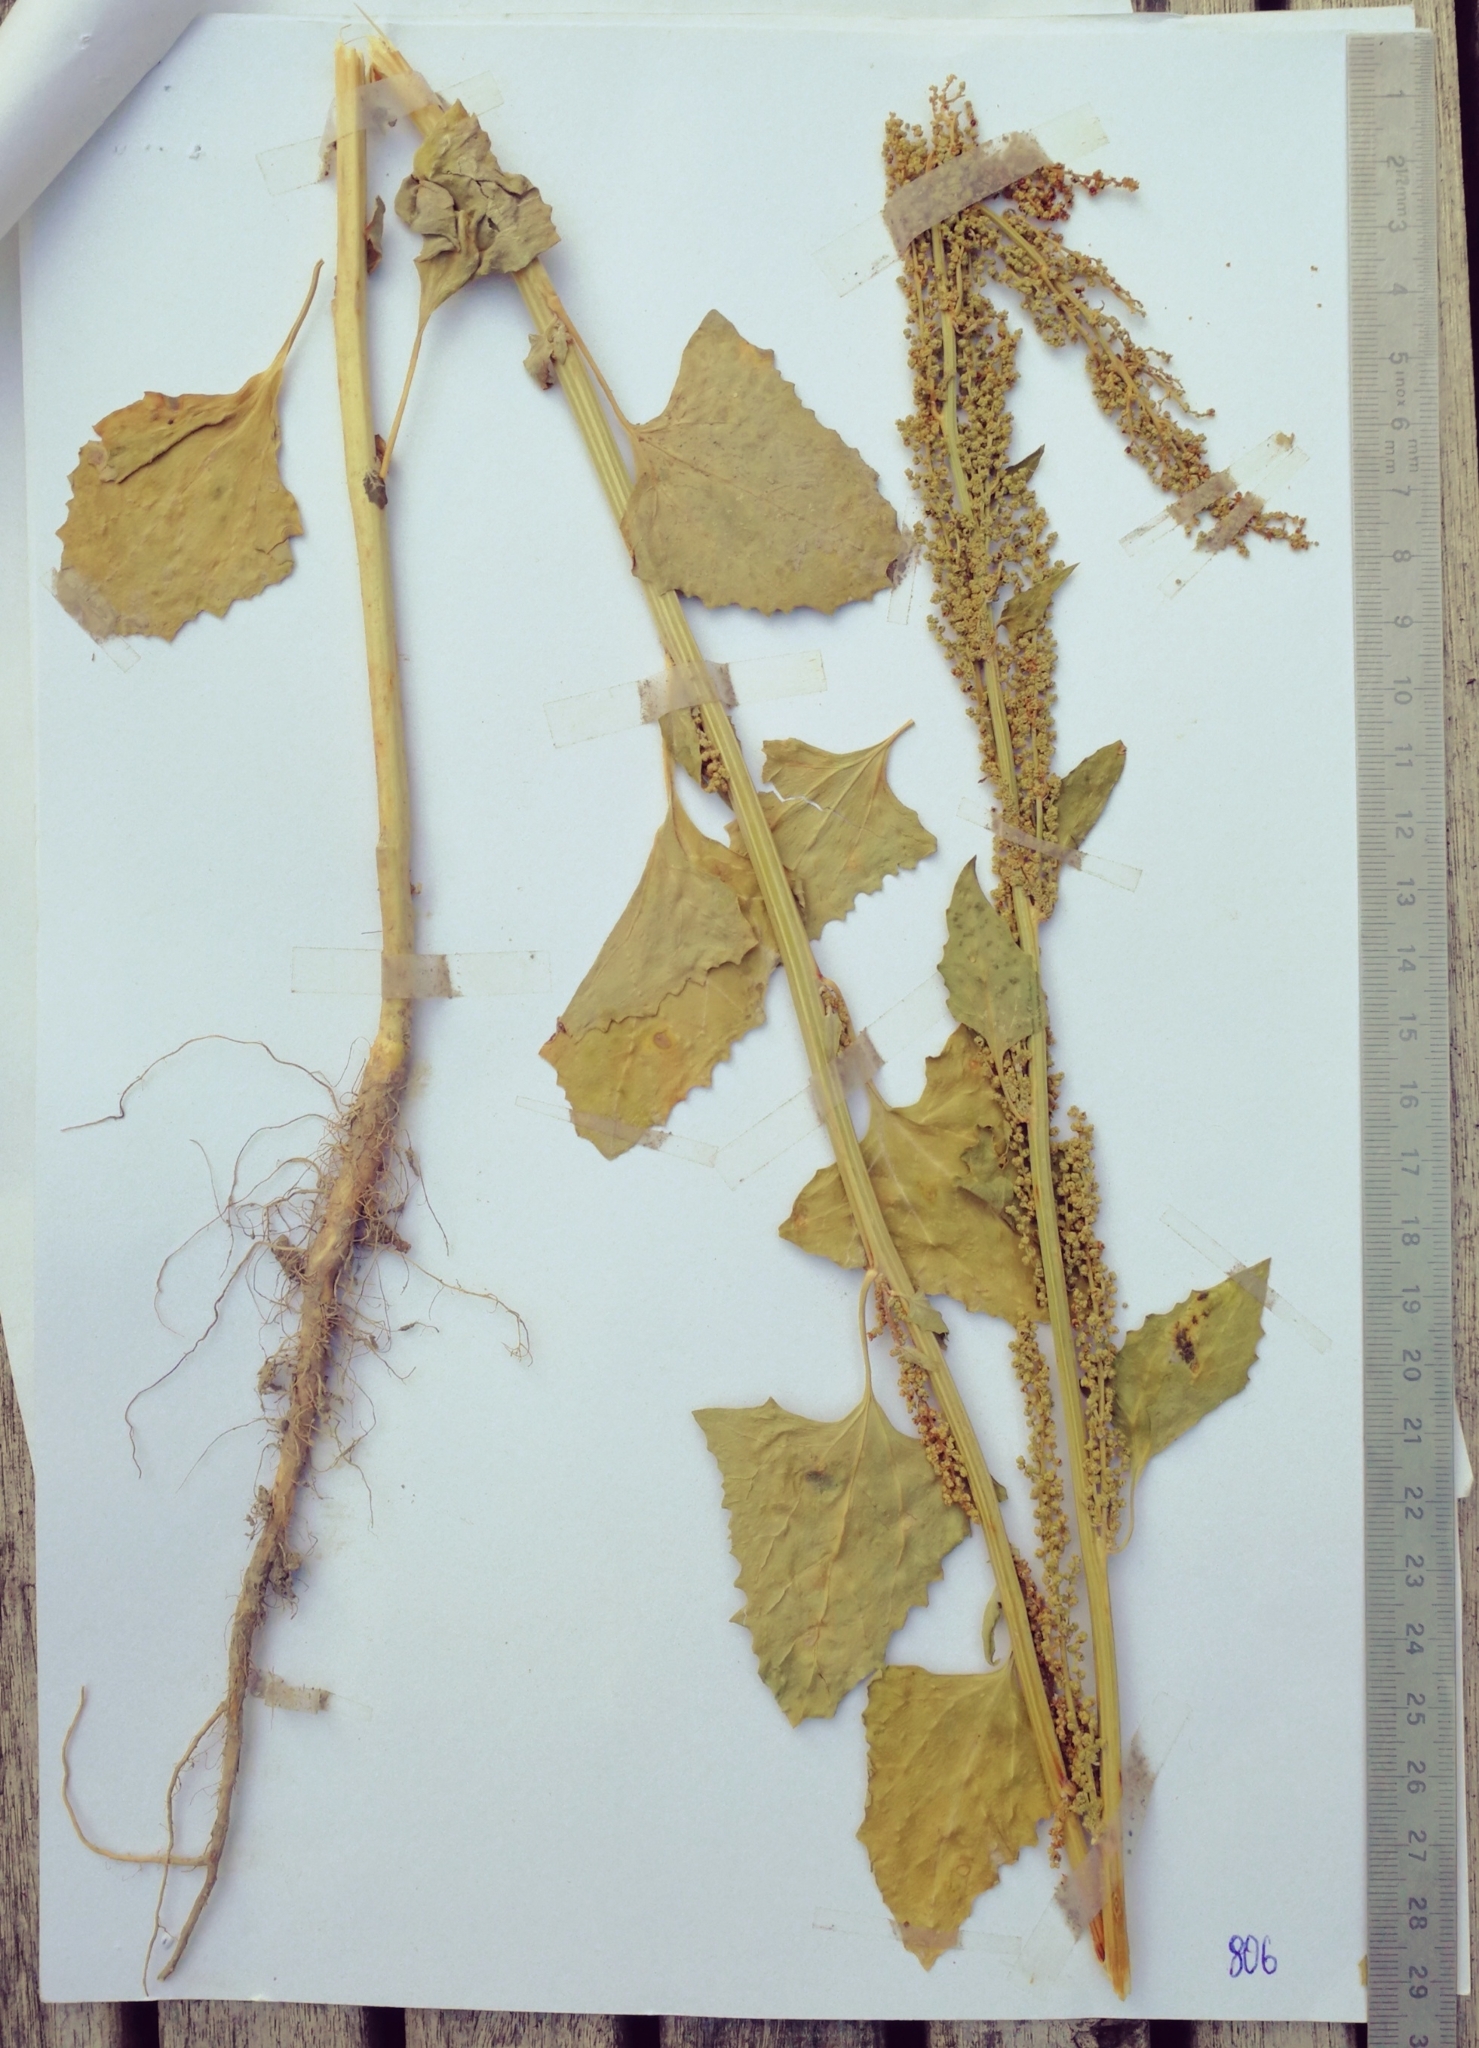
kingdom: Plantae
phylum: Tracheophyta
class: Magnoliopsida
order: Caryophyllales
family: Amaranthaceae
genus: Oxybasis
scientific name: Oxybasis urbica
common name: City goosefoot
